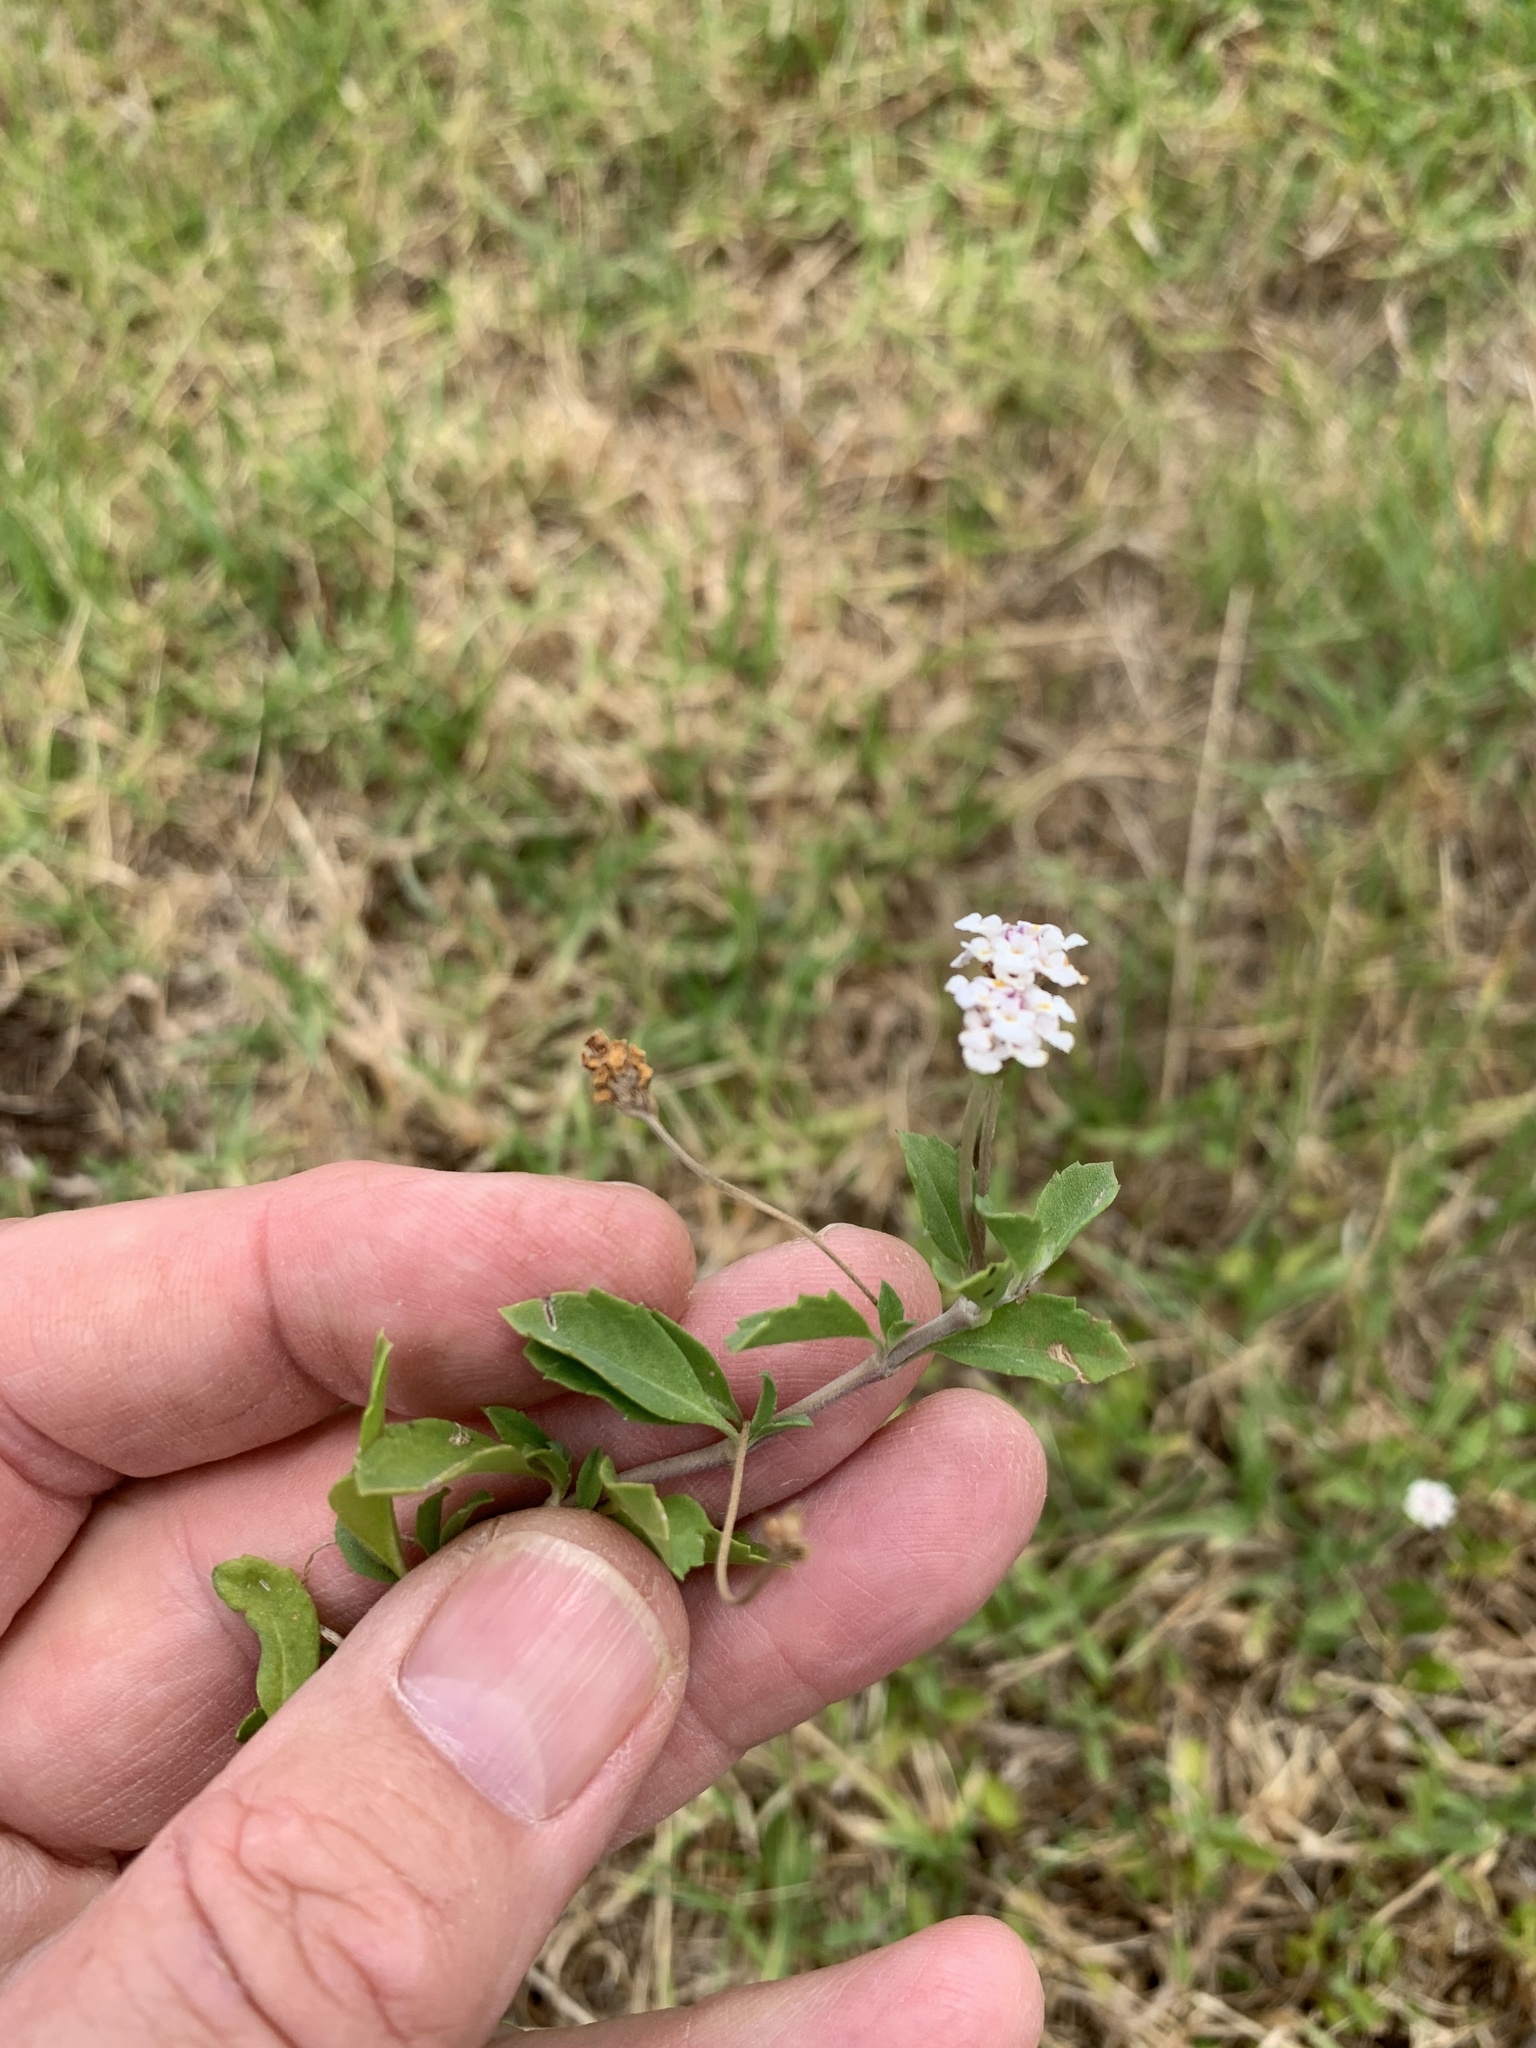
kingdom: Plantae
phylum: Tracheophyta
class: Magnoliopsida
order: Lamiales
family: Verbenaceae
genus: Phyla
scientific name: Phyla nodiflora
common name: Frogfruit
